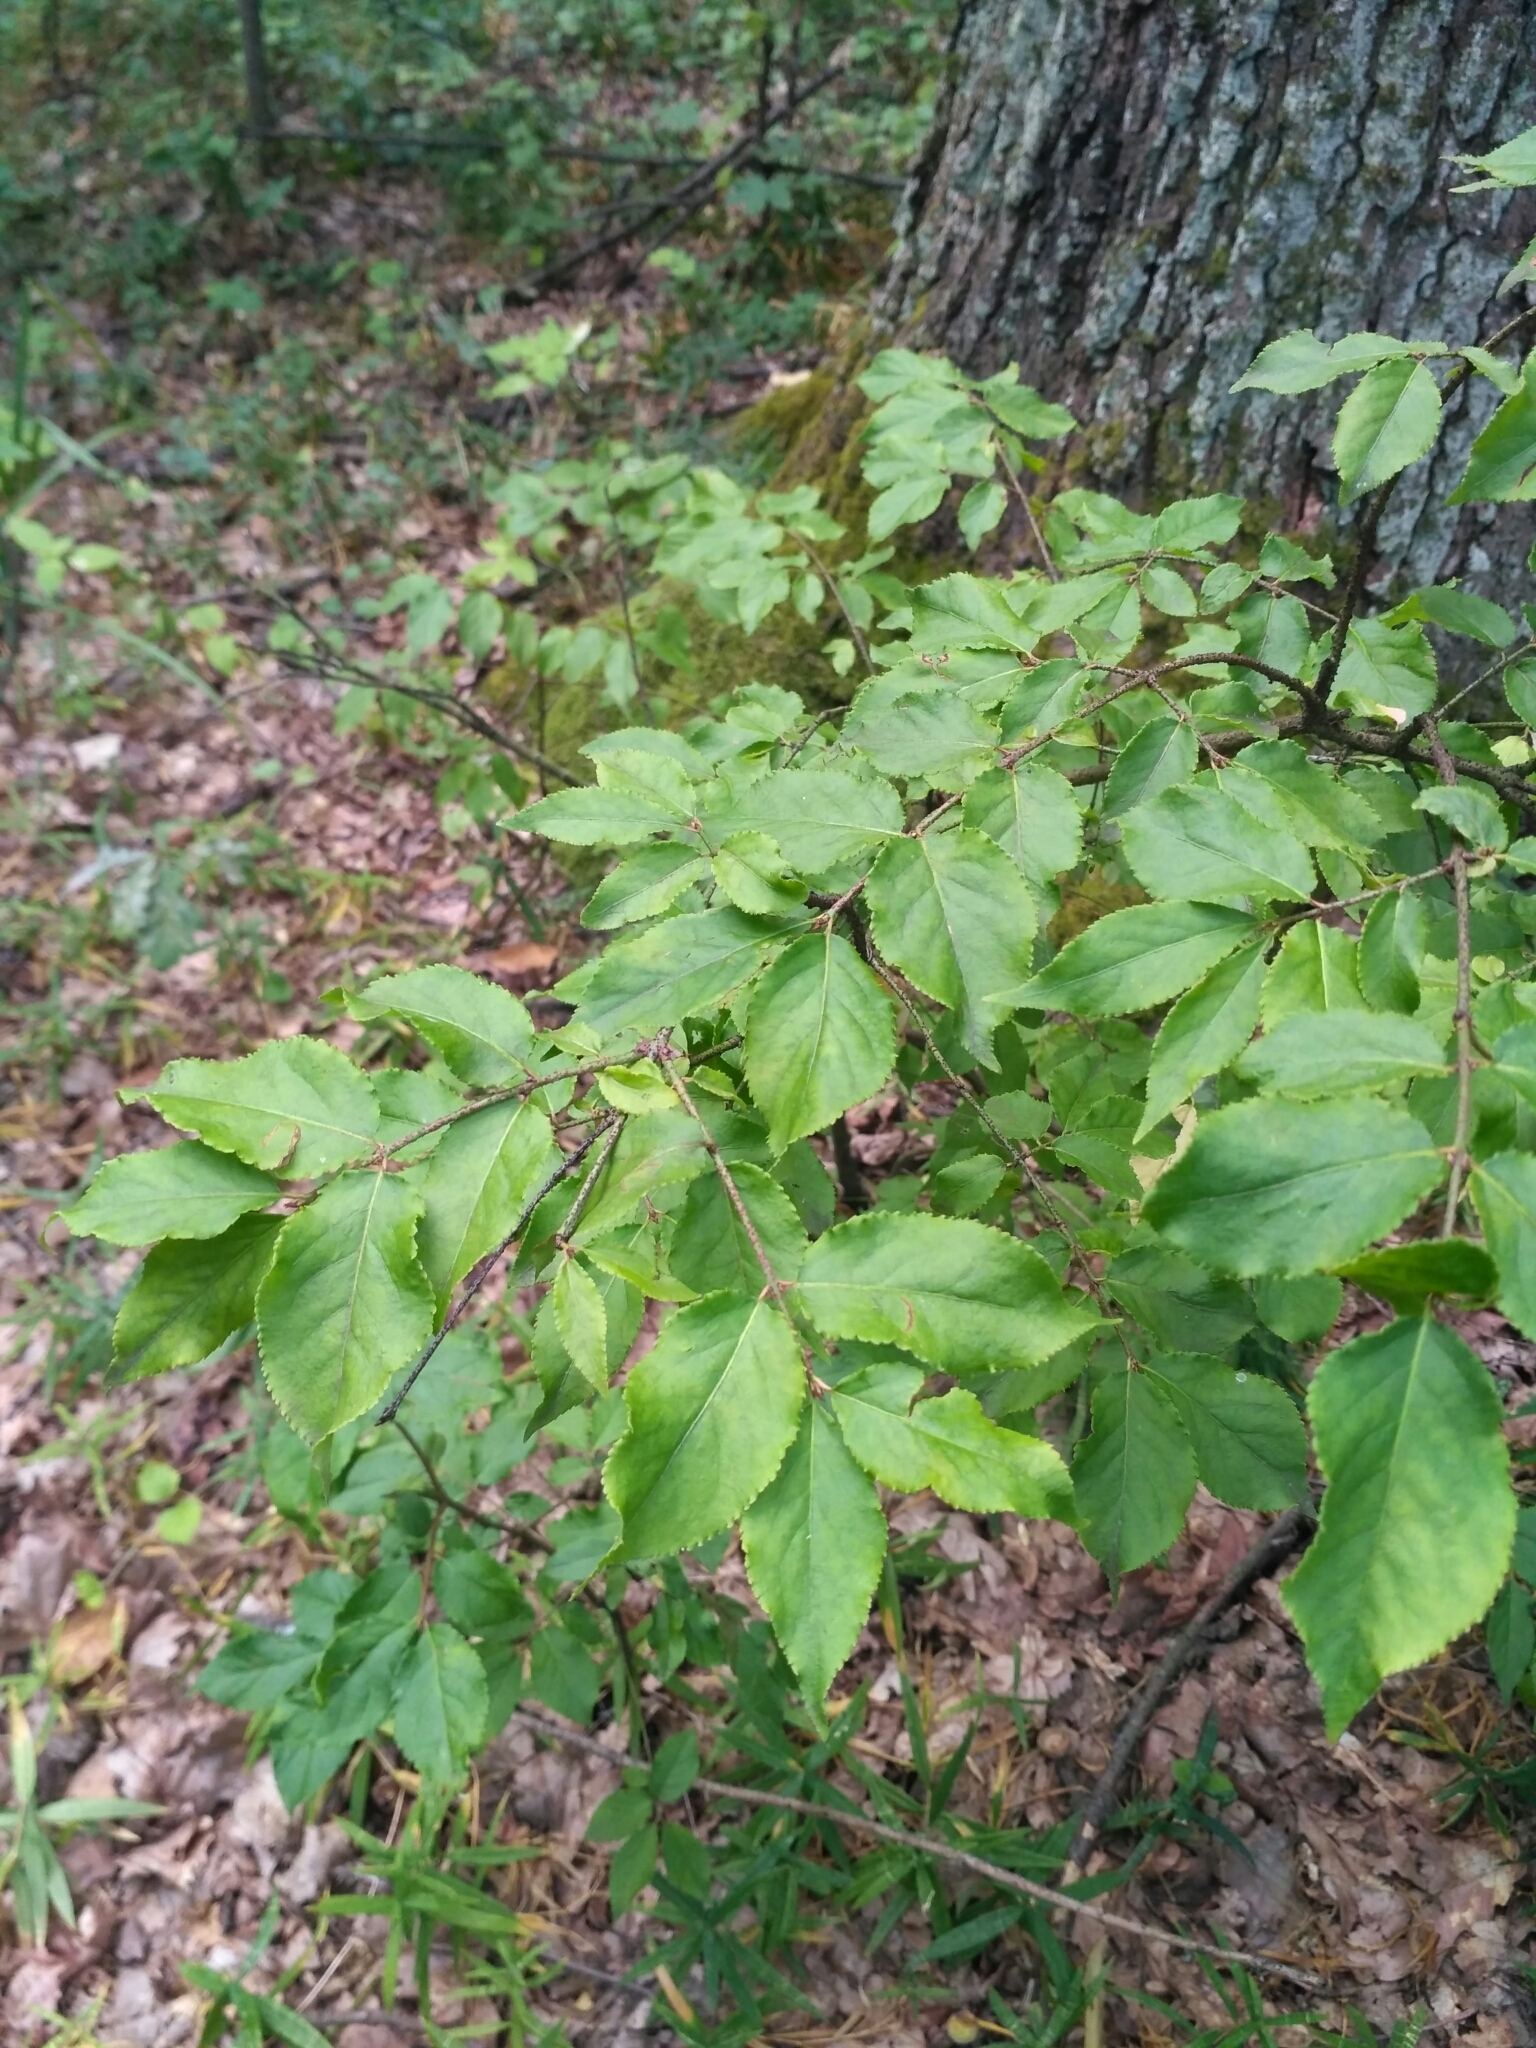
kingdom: Plantae
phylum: Tracheophyta
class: Magnoliopsida
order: Celastrales
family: Celastraceae
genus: Euonymus
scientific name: Euonymus verrucosus
